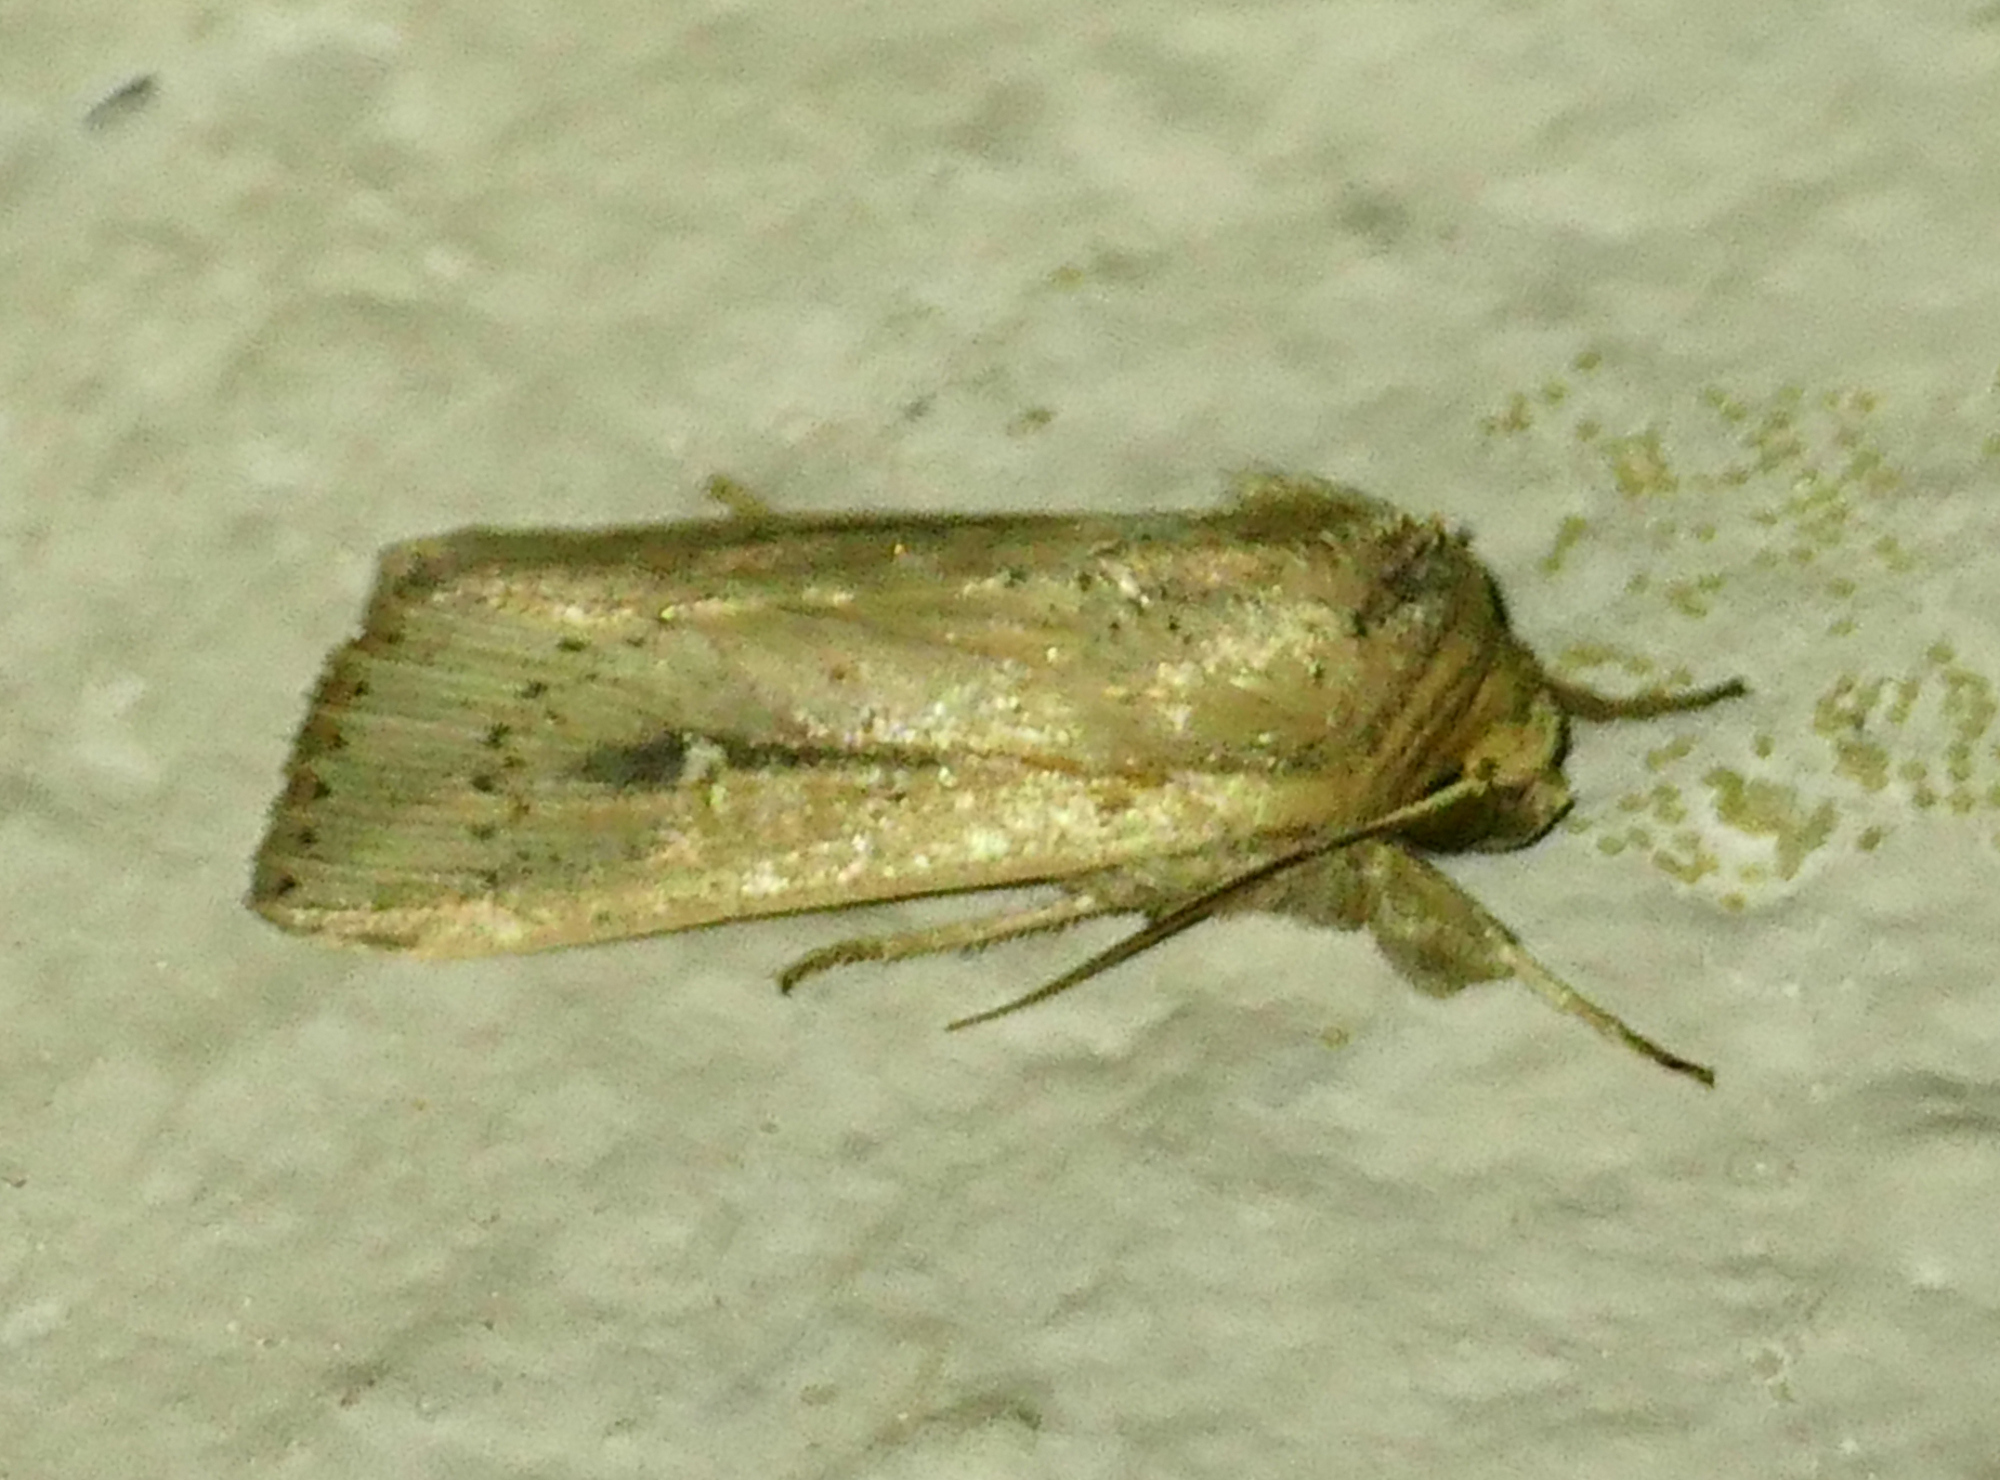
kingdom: Animalia
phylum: Arthropoda
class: Insecta
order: Lepidoptera
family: Noctuidae
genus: Leucania
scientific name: Leucania incognita
